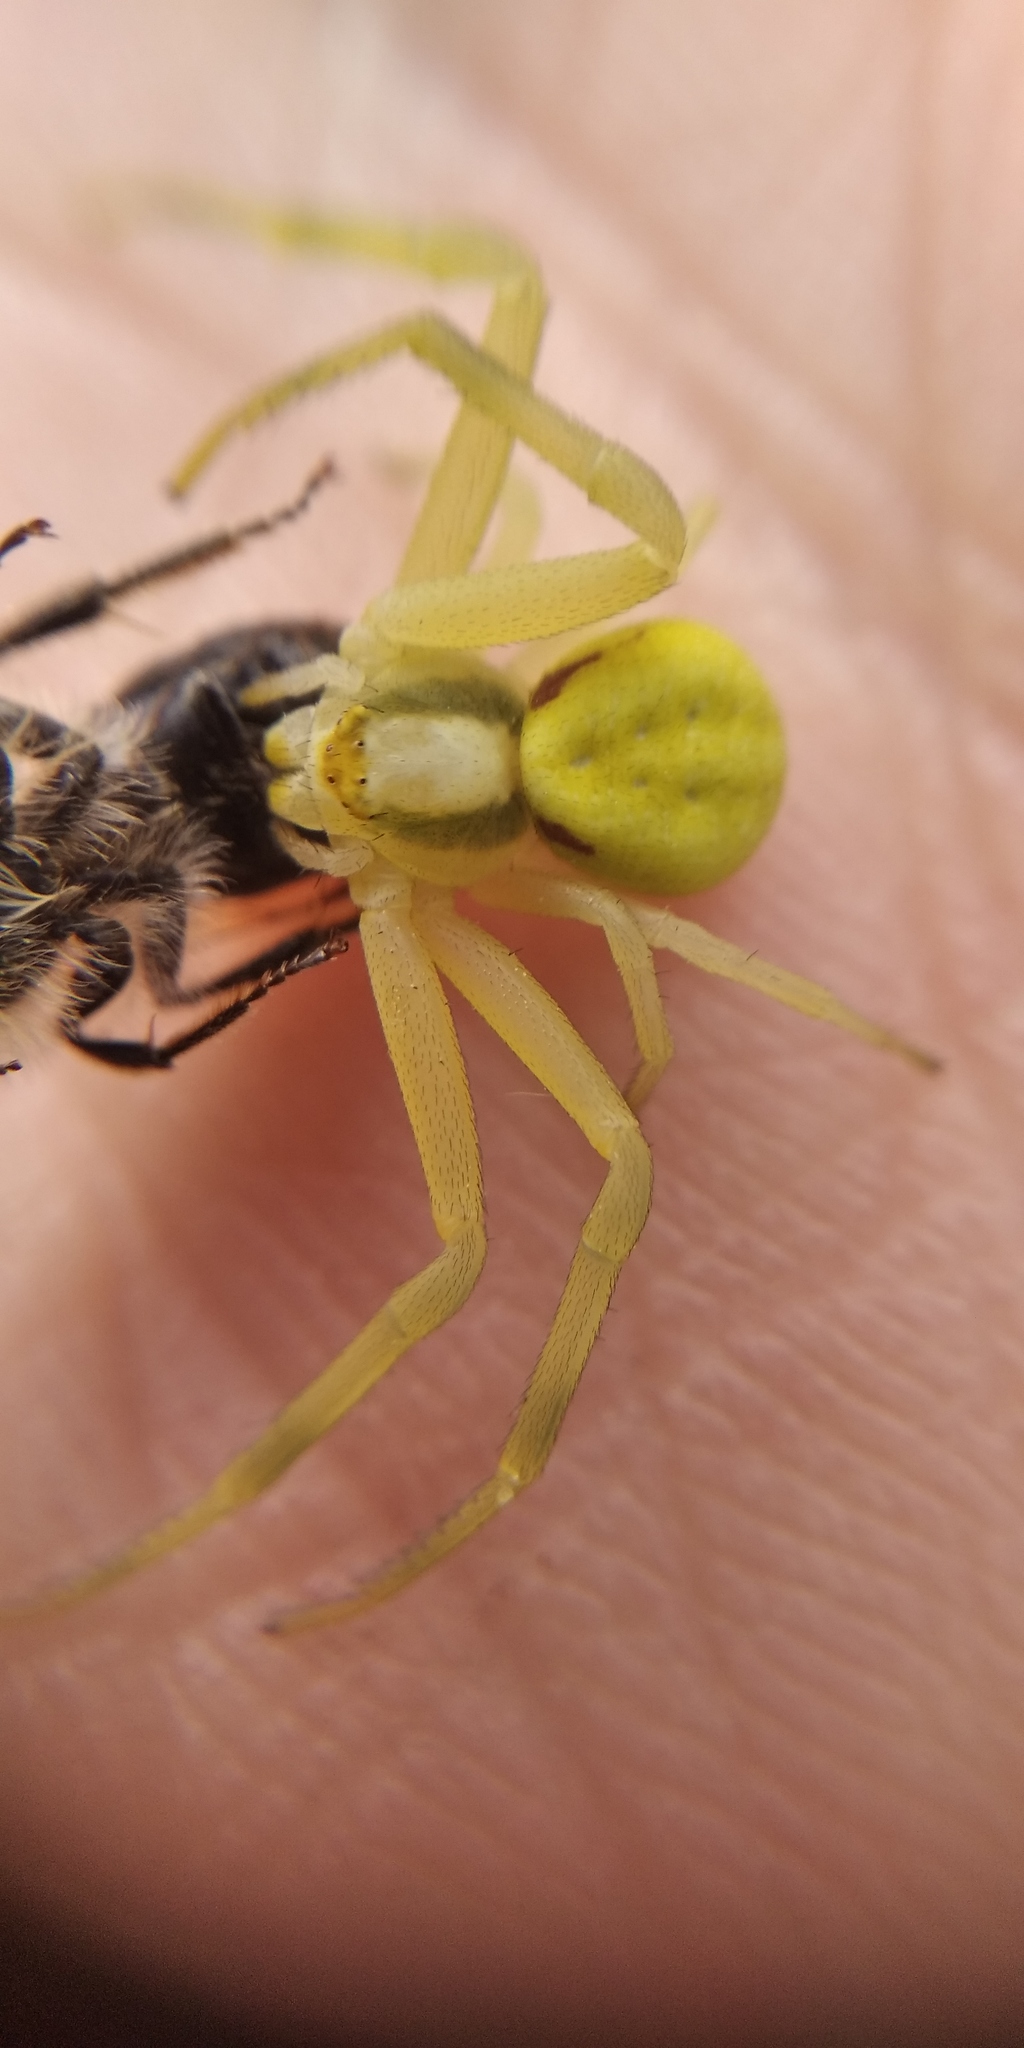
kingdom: Animalia
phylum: Arthropoda
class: Arachnida
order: Araneae
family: Thomisidae
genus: Misumena
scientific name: Misumena vatia
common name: Goldenrod crab spider
